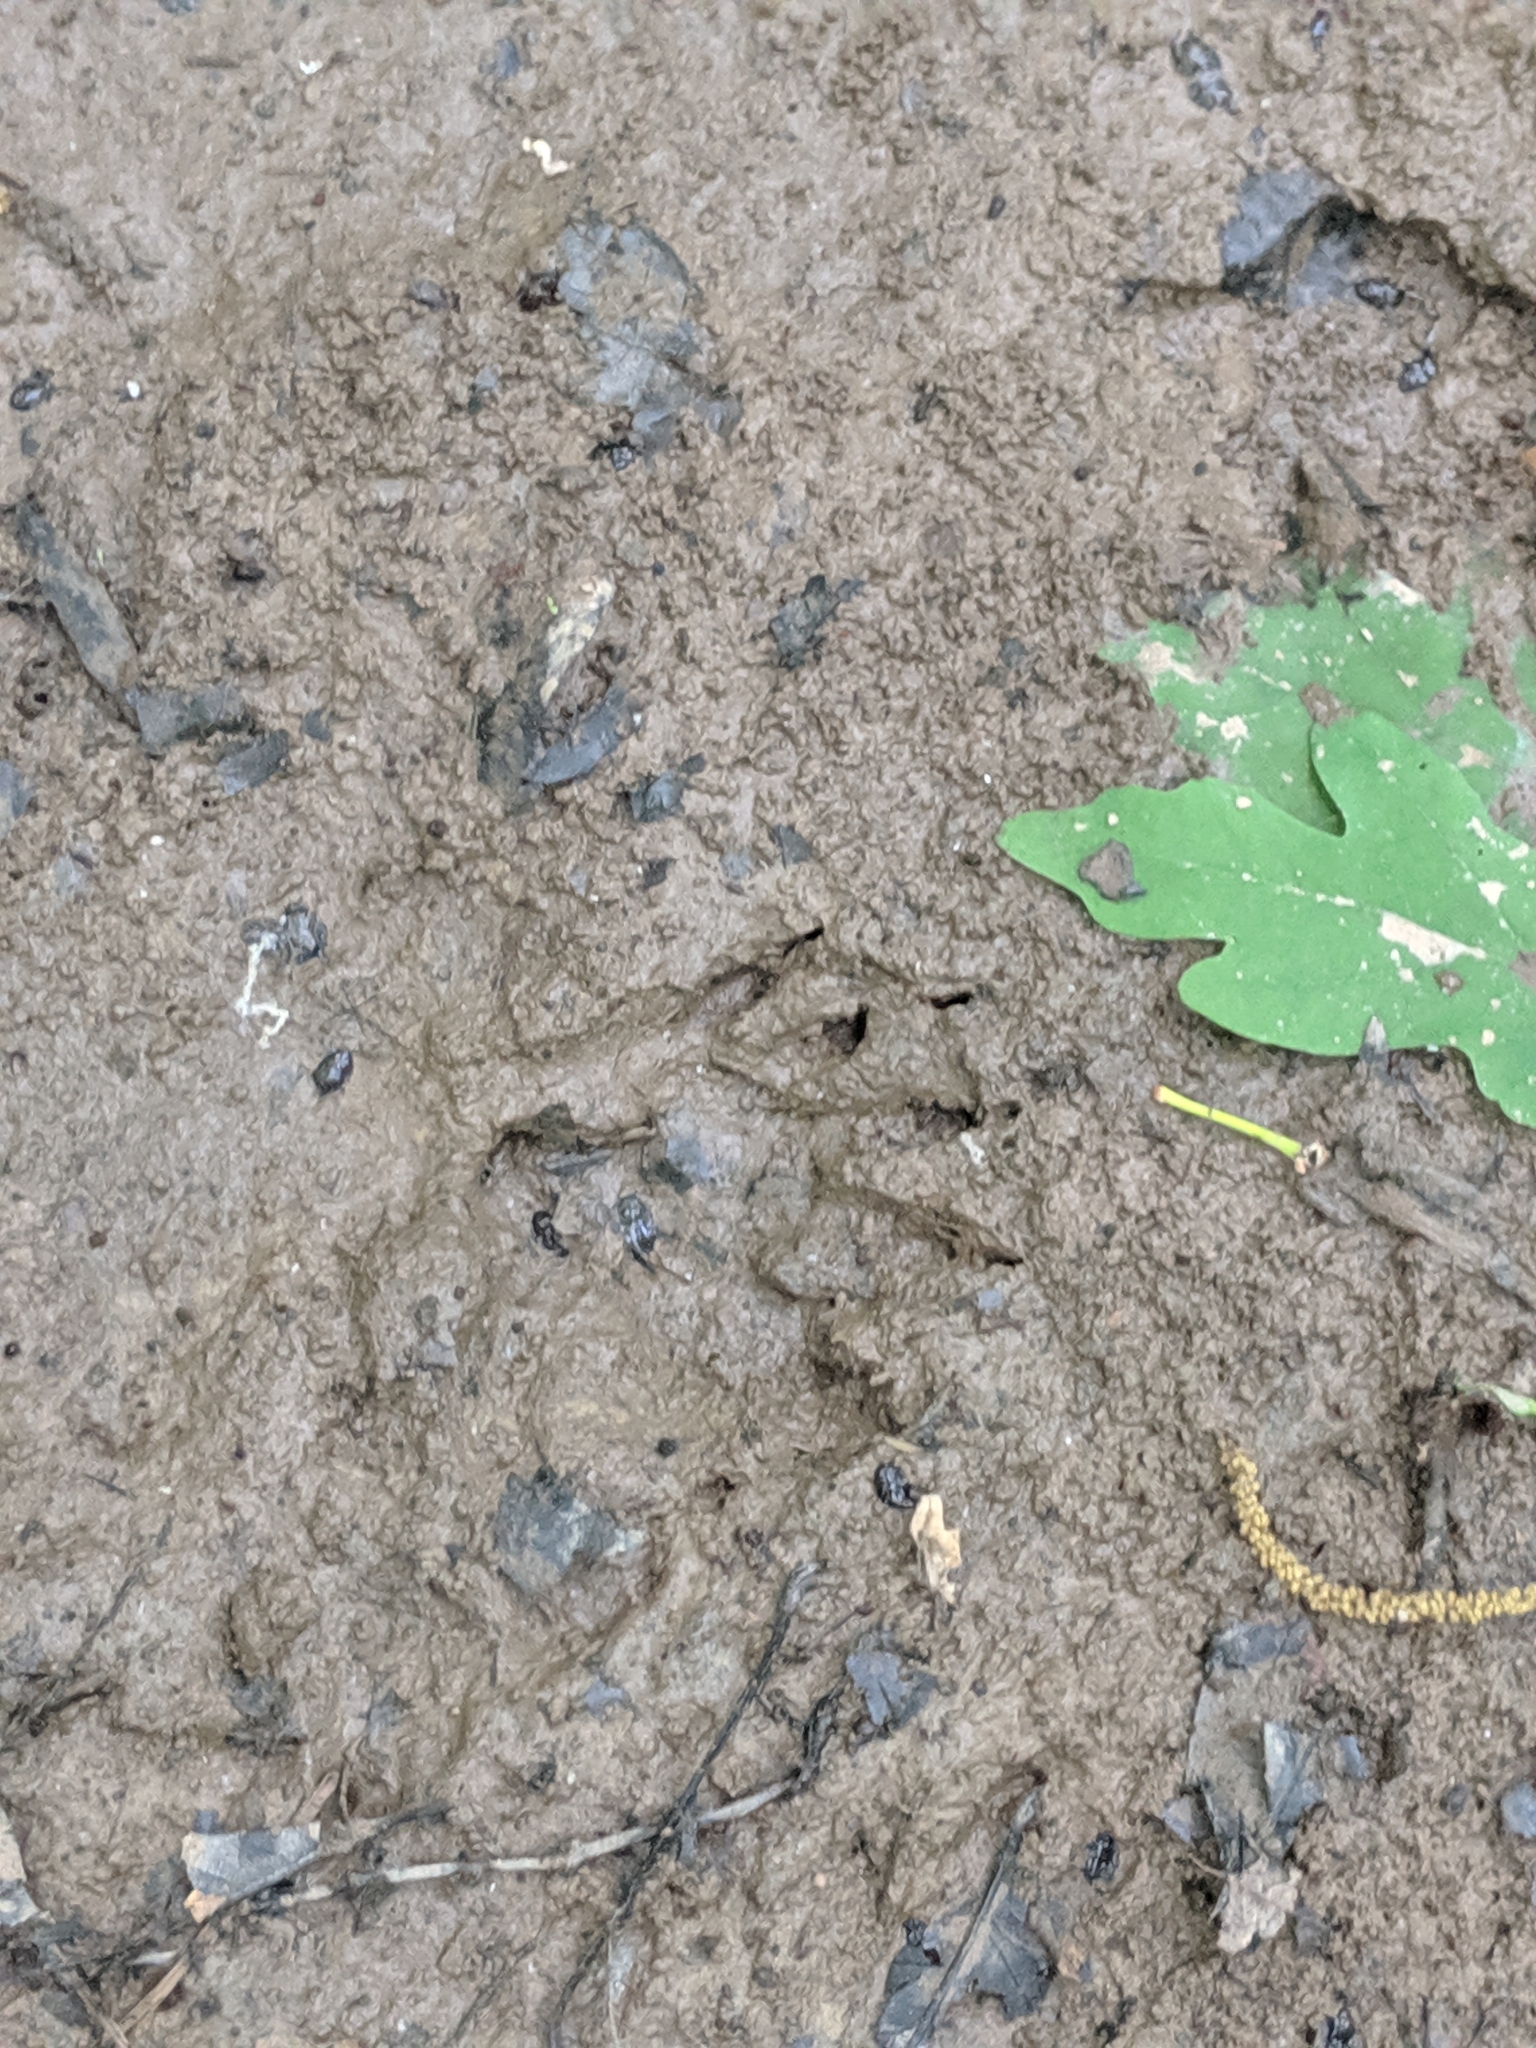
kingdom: Animalia
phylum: Chordata
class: Mammalia
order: Carnivora
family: Procyonidae
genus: Procyon
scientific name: Procyon lotor
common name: Raccoon
